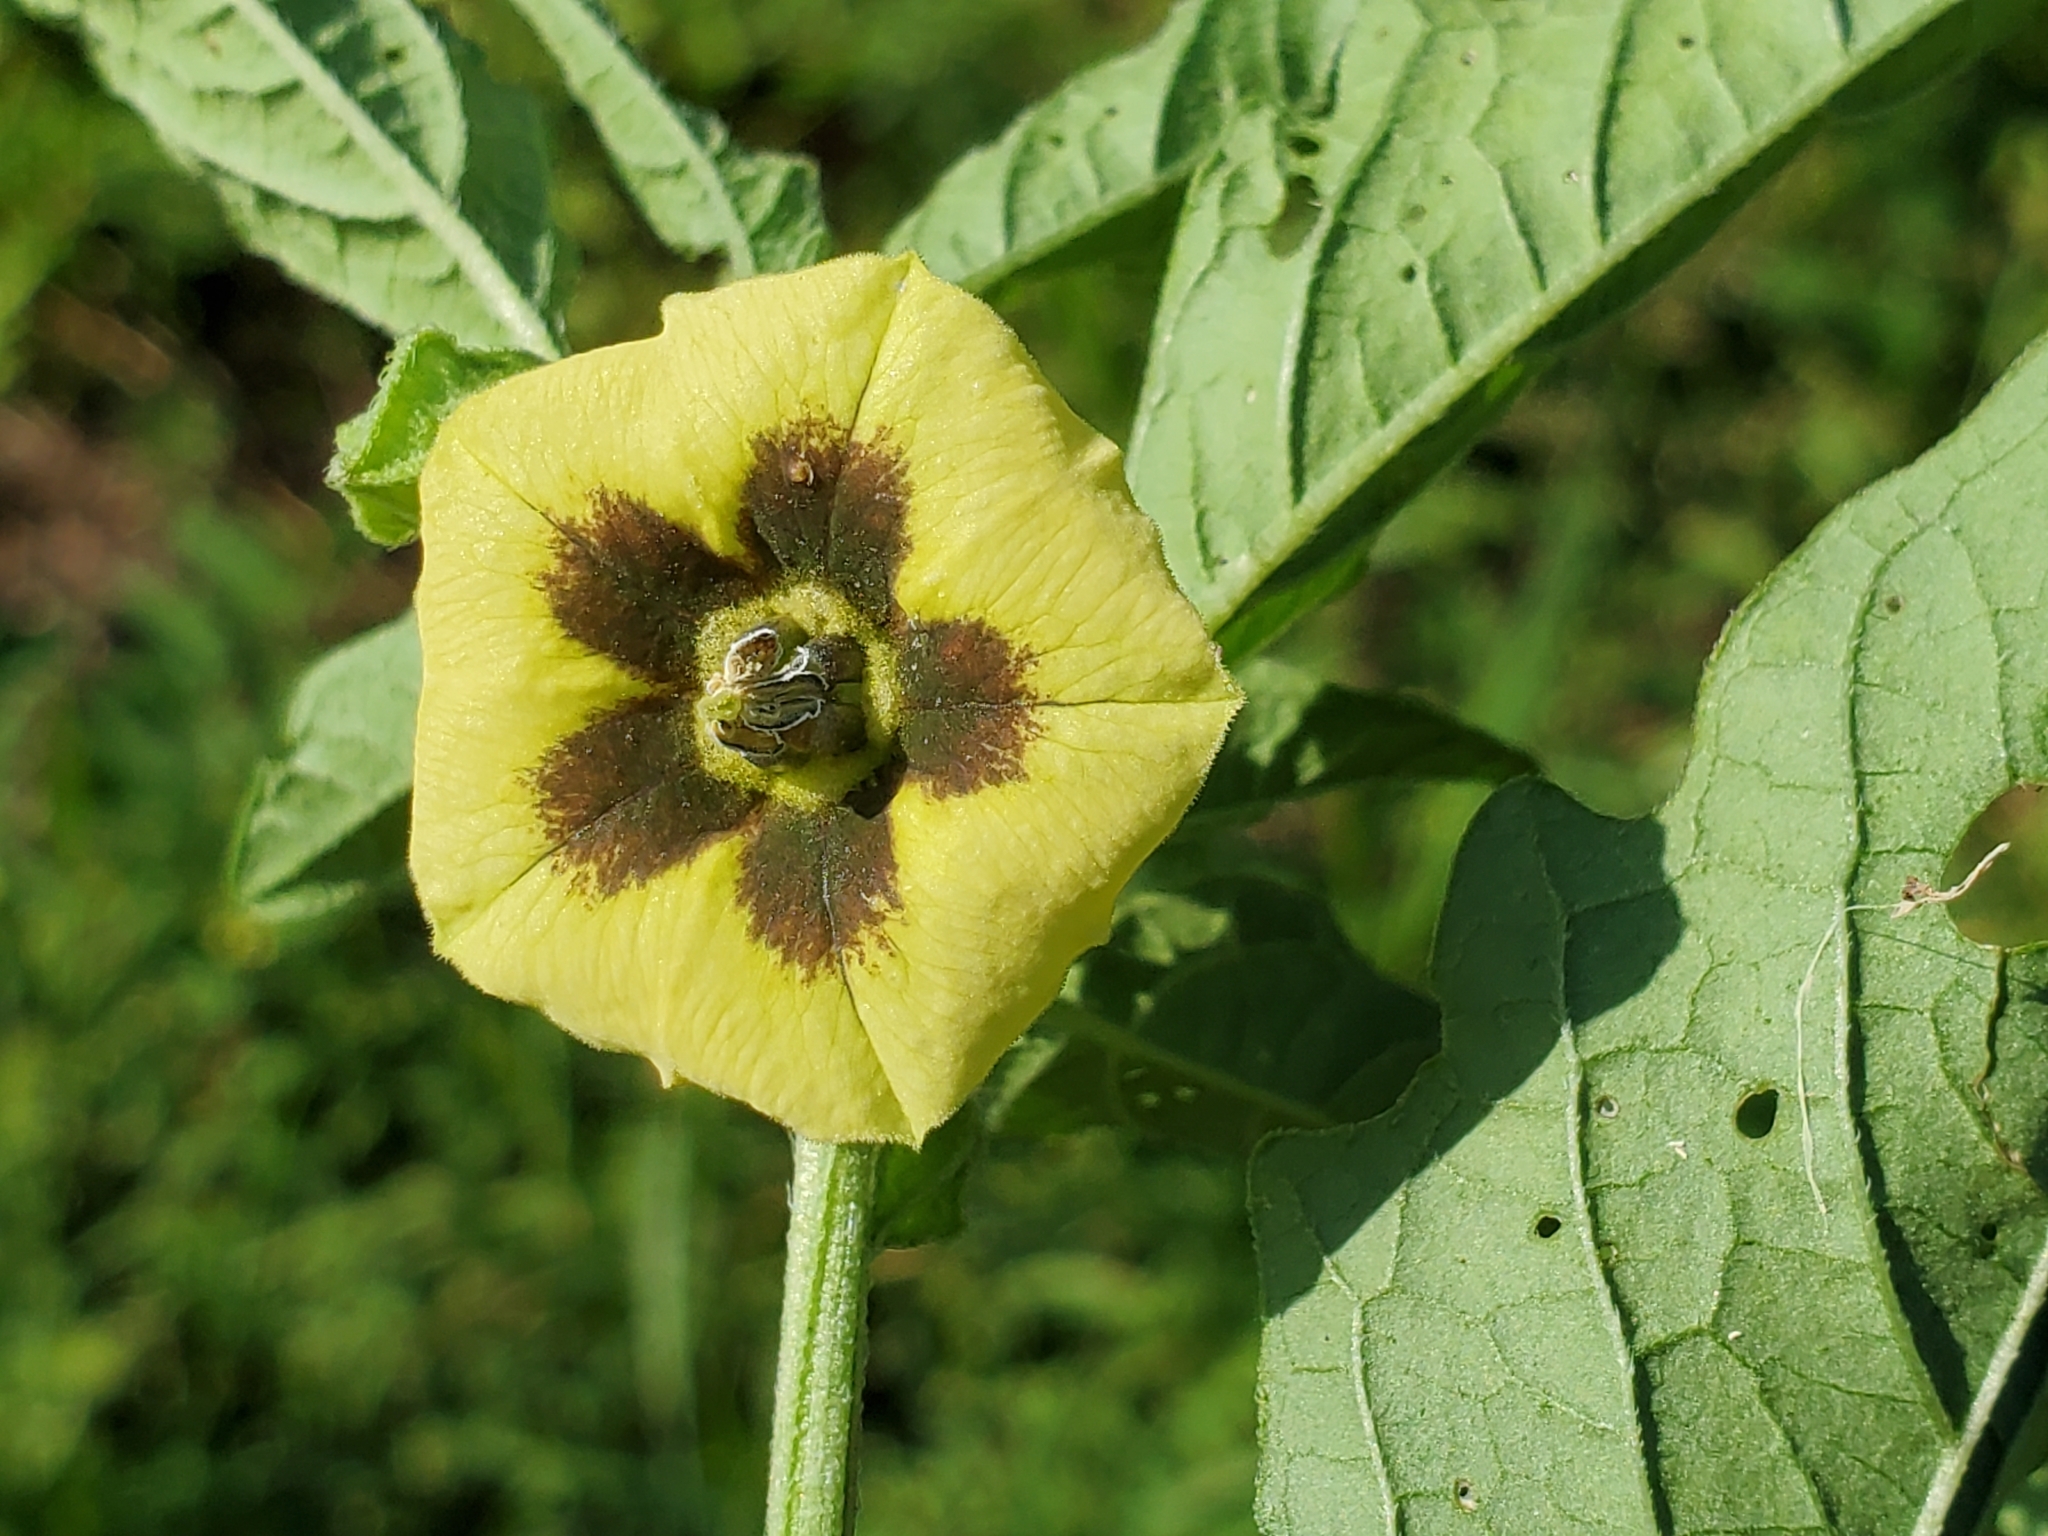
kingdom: Plantae
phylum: Tracheophyta
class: Magnoliopsida
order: Solanales
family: Solanaceae
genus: Physalis
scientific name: Physalis longifolia
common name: Common ground-cherry
